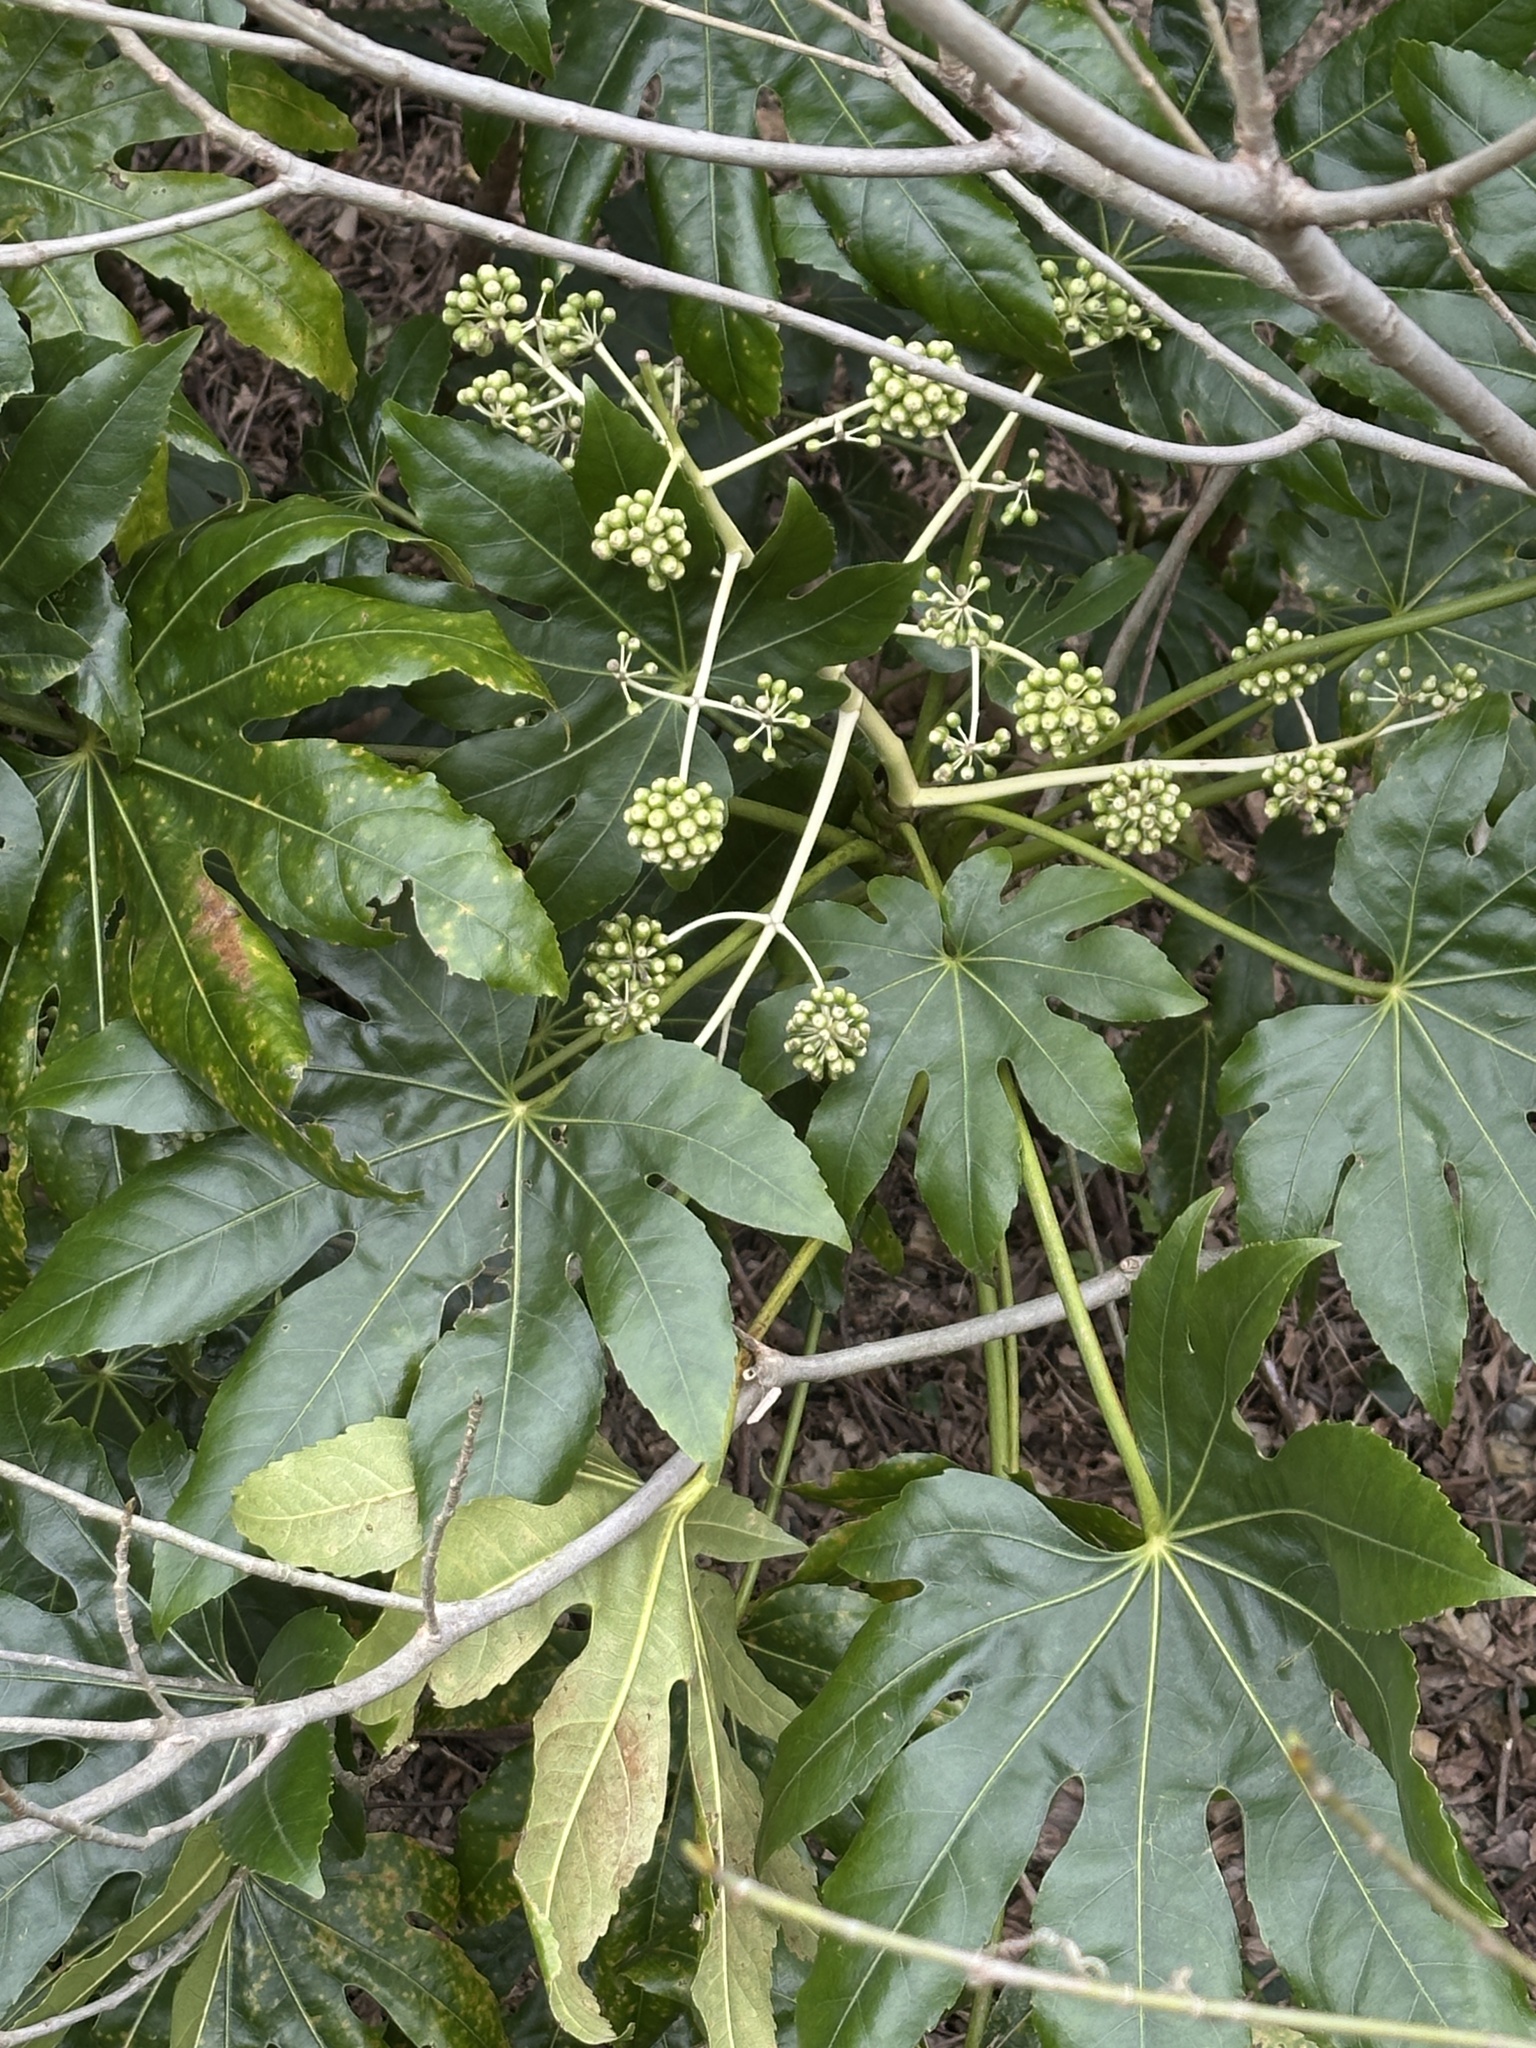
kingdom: Plantae
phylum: Tracheophyta
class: Magnoliopsida
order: Apiales
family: Araliaceae
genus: Fatsia
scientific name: Fatsia japonica
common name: Fatsia
